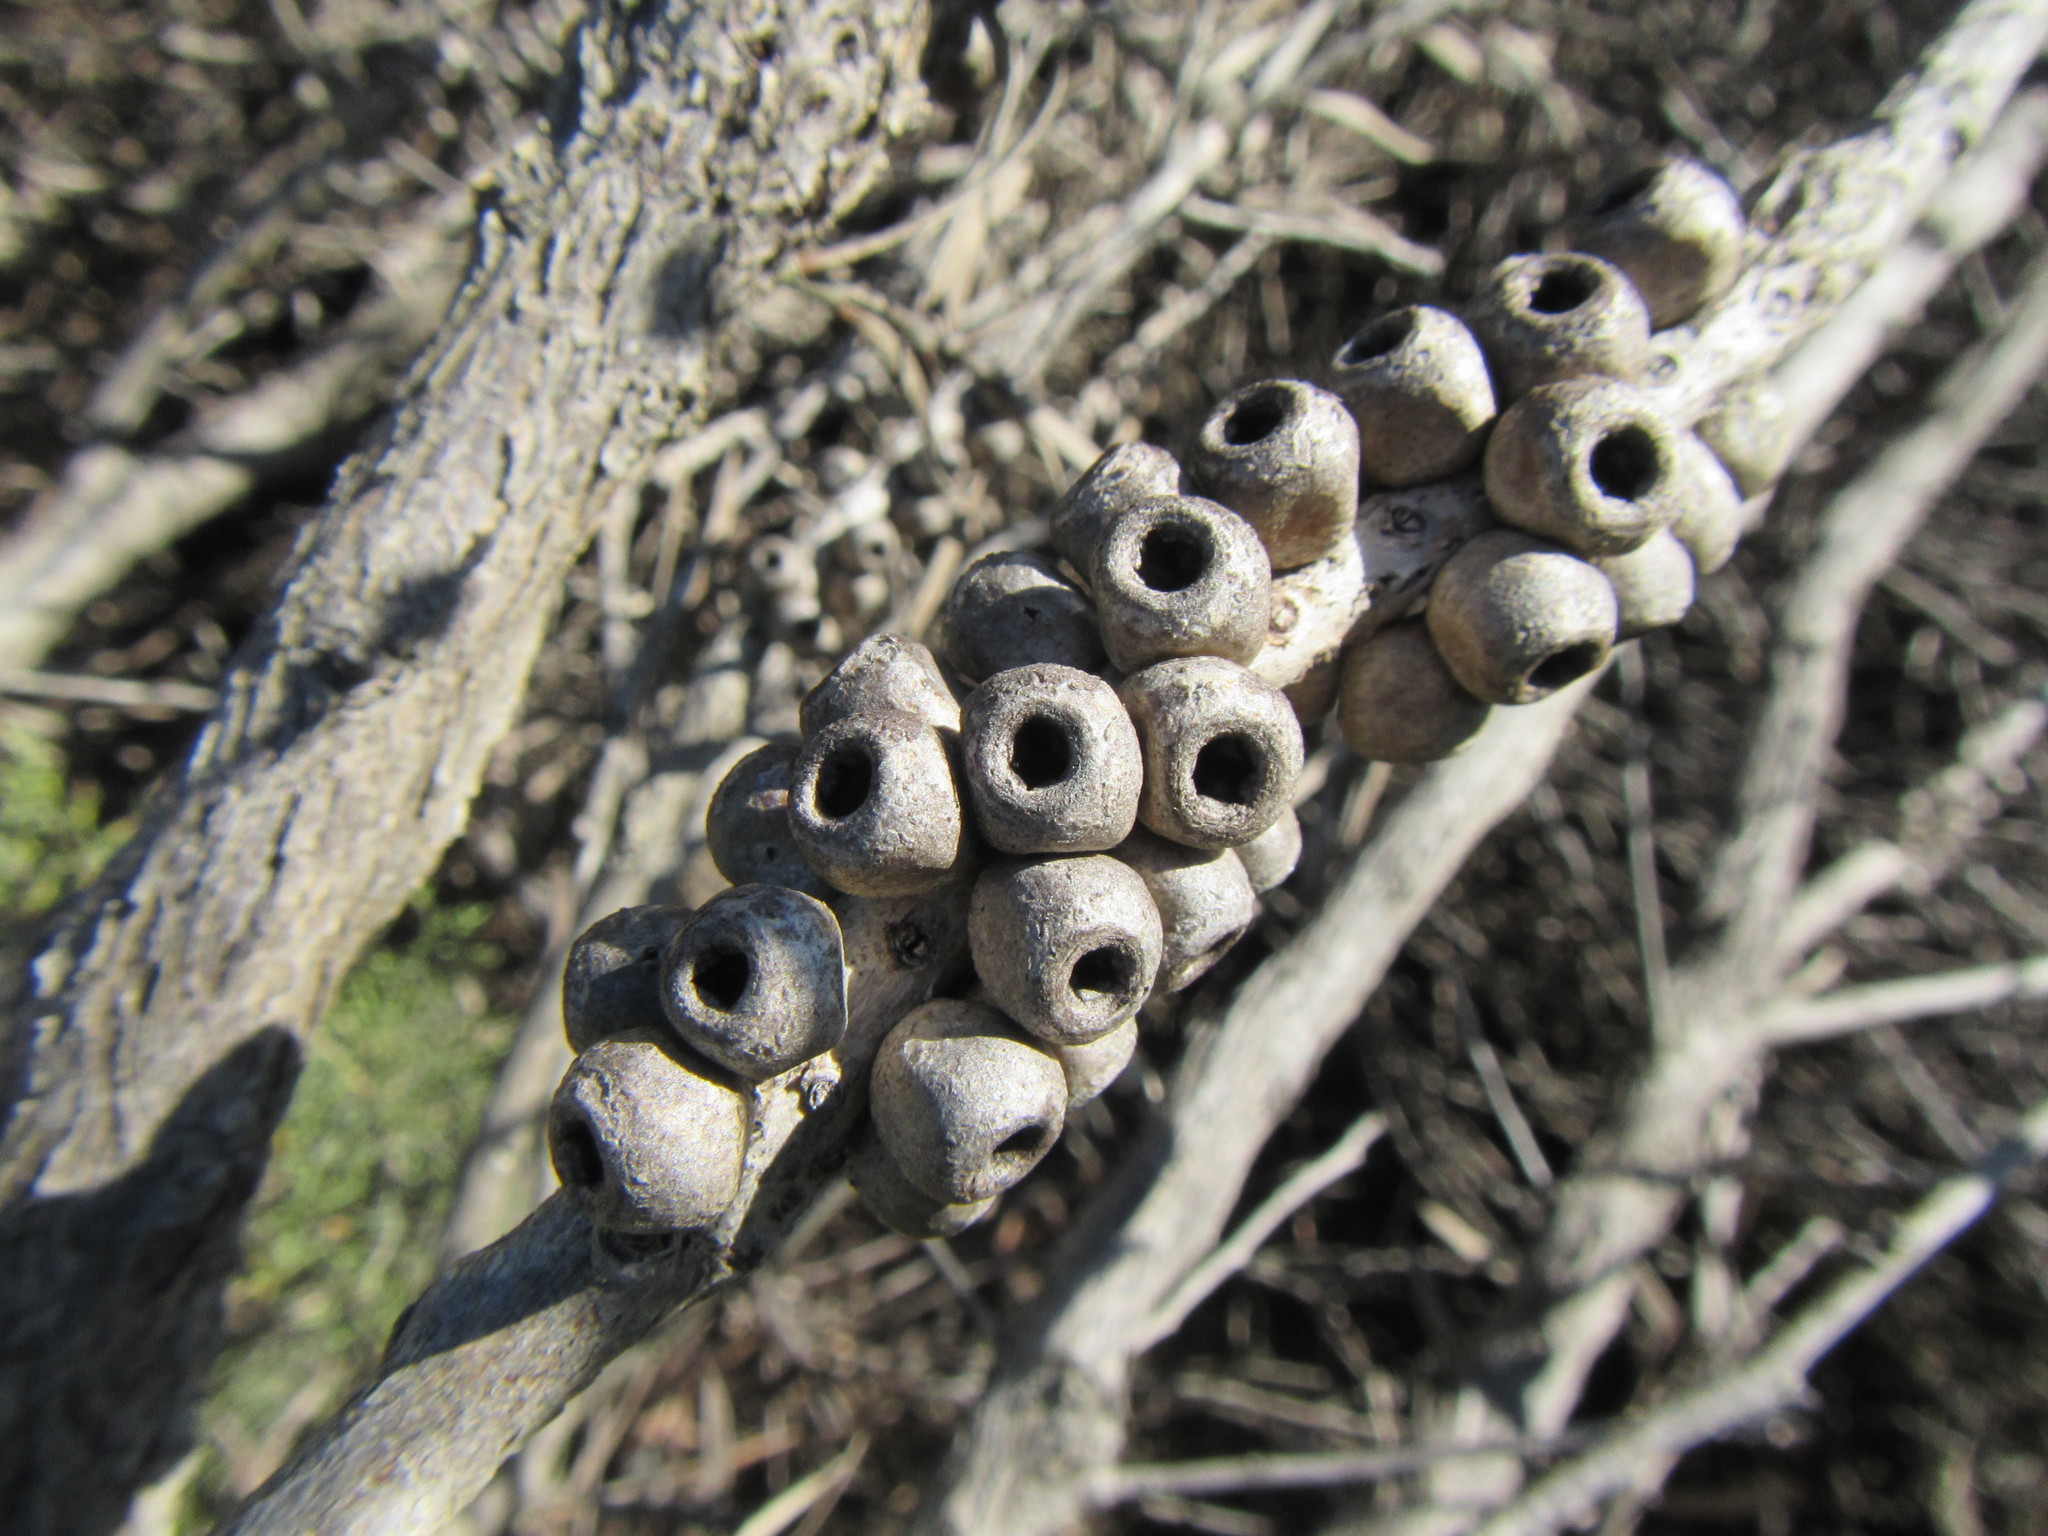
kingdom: Plantae
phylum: Tracheophyta
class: Magnoliopsida
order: Myrtales
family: Myrtaceae
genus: Callistemon
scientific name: Callistemon rugulosus
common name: Scarlet bottlebrush
